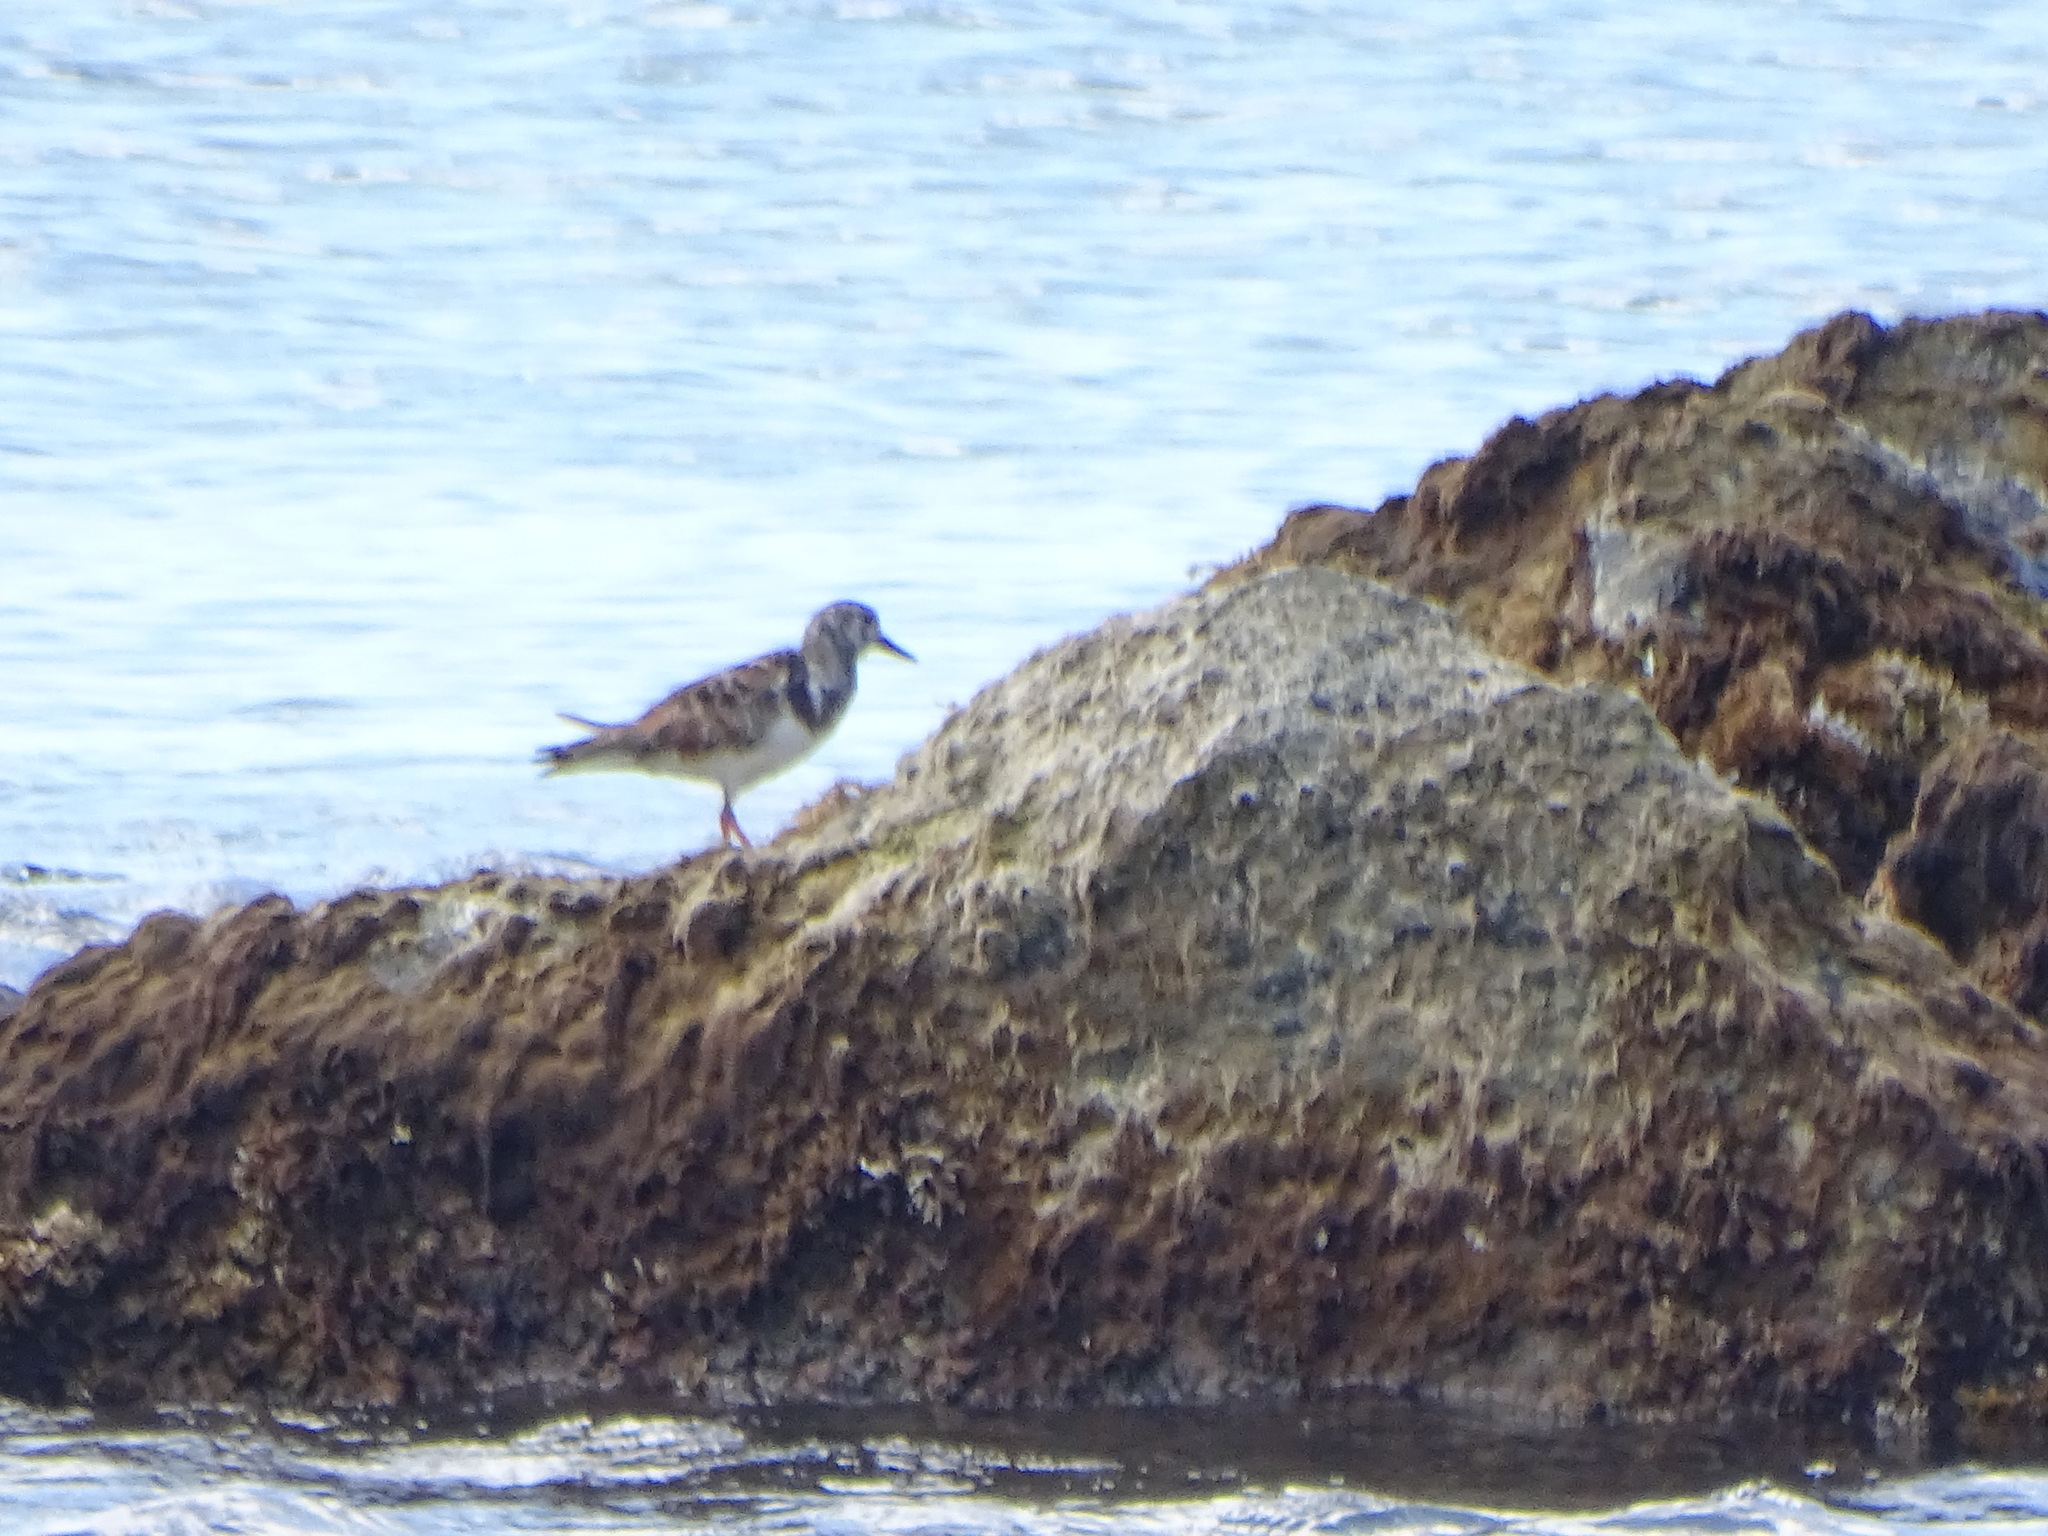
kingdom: Animalia
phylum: Chordata
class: Aves
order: Charadriiformes
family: Scolopacidae
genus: Arenaria
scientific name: Arenaria interpres
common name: Ruddy turnstone
